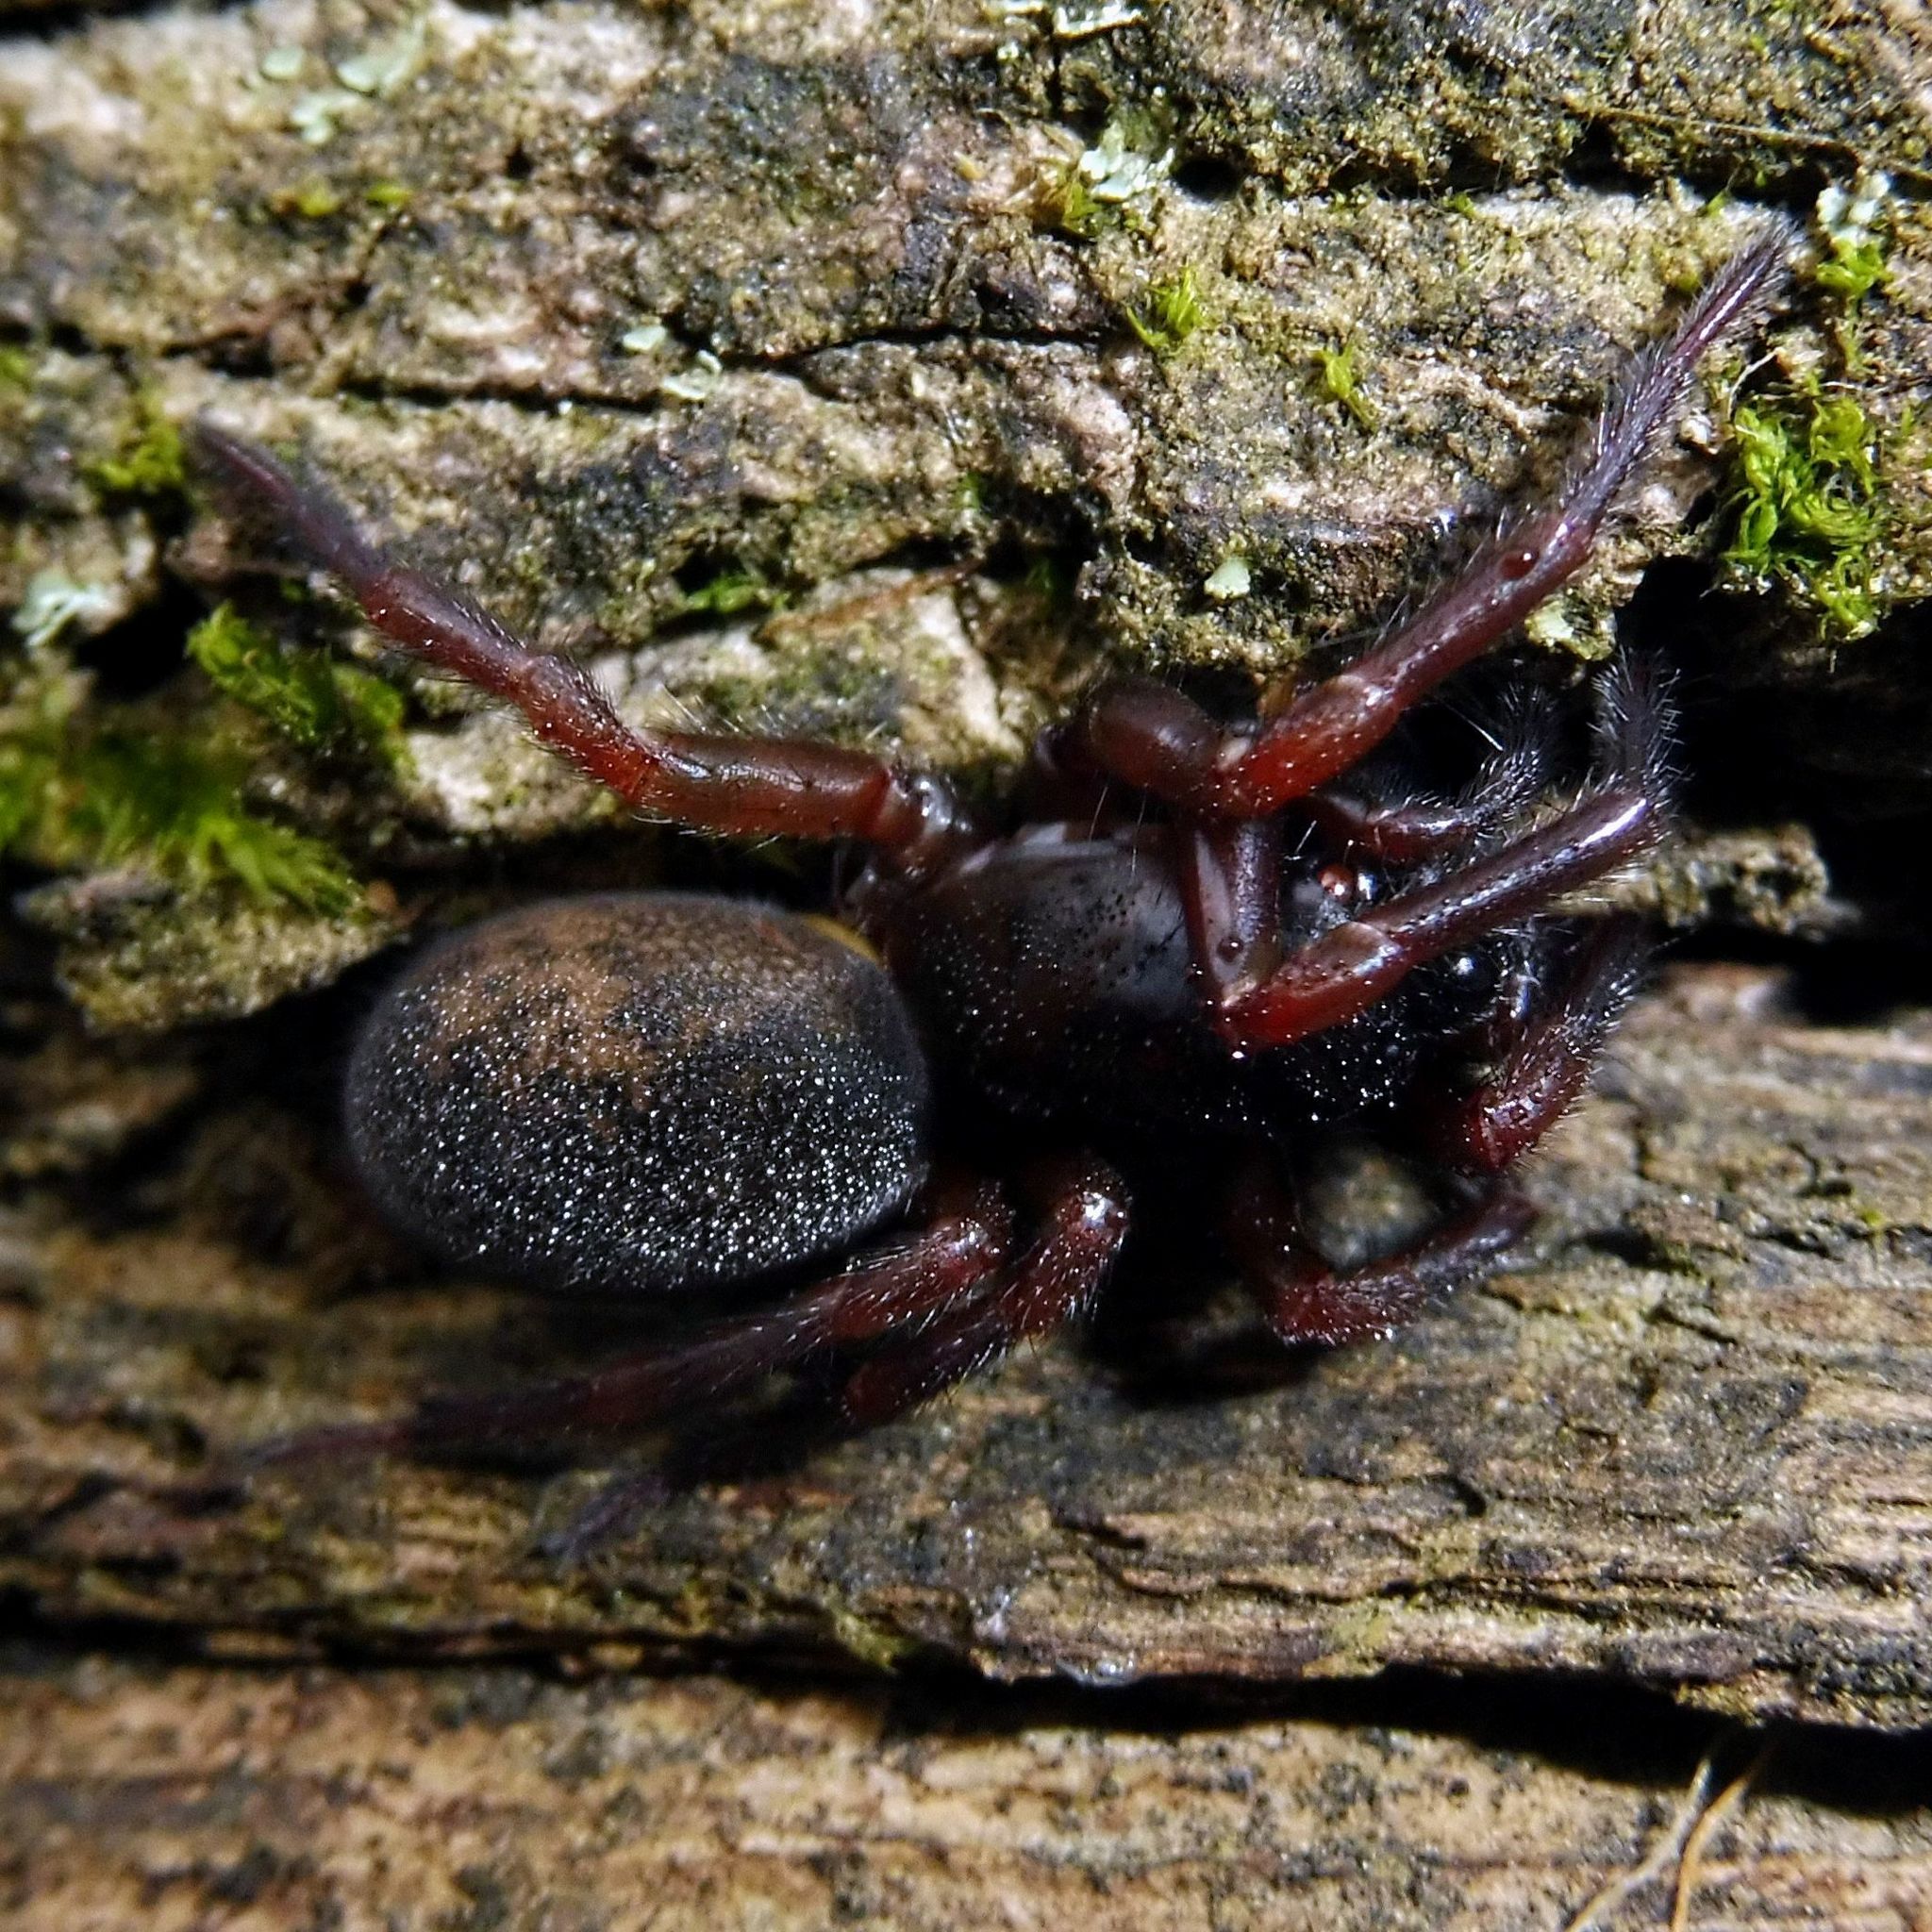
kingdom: Animalia
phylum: Arthropoda
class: Arachnida
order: Araneae
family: Agelenidae
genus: Coelotes
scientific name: Coelotes
